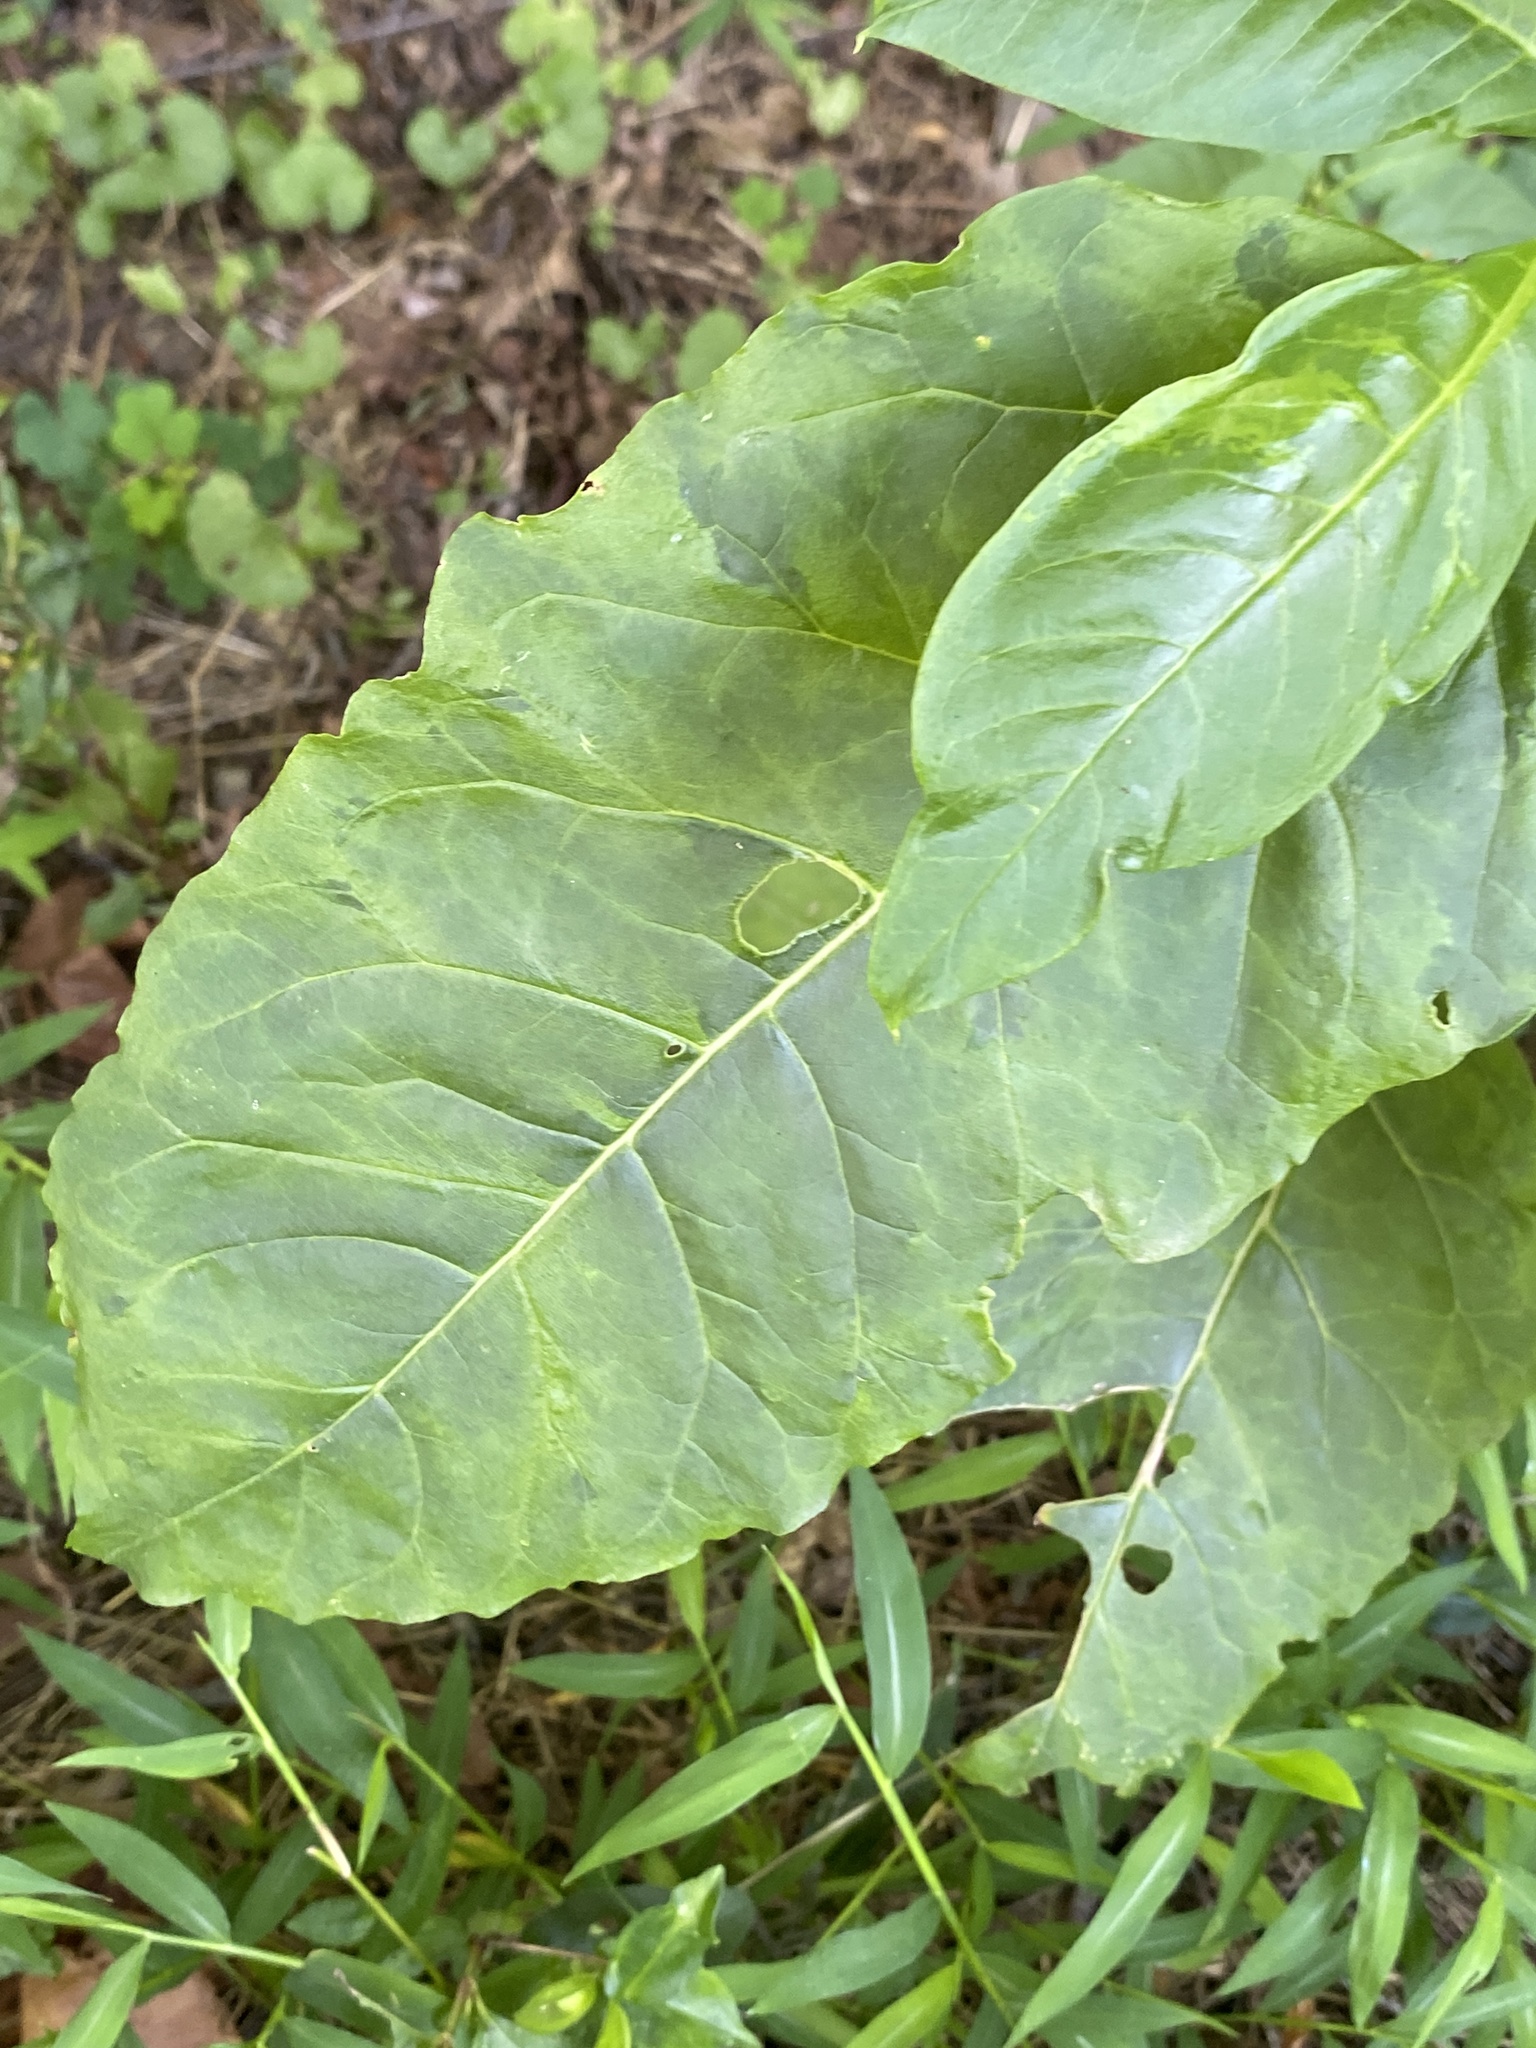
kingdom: Viruses
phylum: Pisuviricota
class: Stelpaviricetes
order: Patatavirales
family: Potyviridae
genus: Potyvirus
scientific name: Potyvirus Pokeweed mosaic virus
